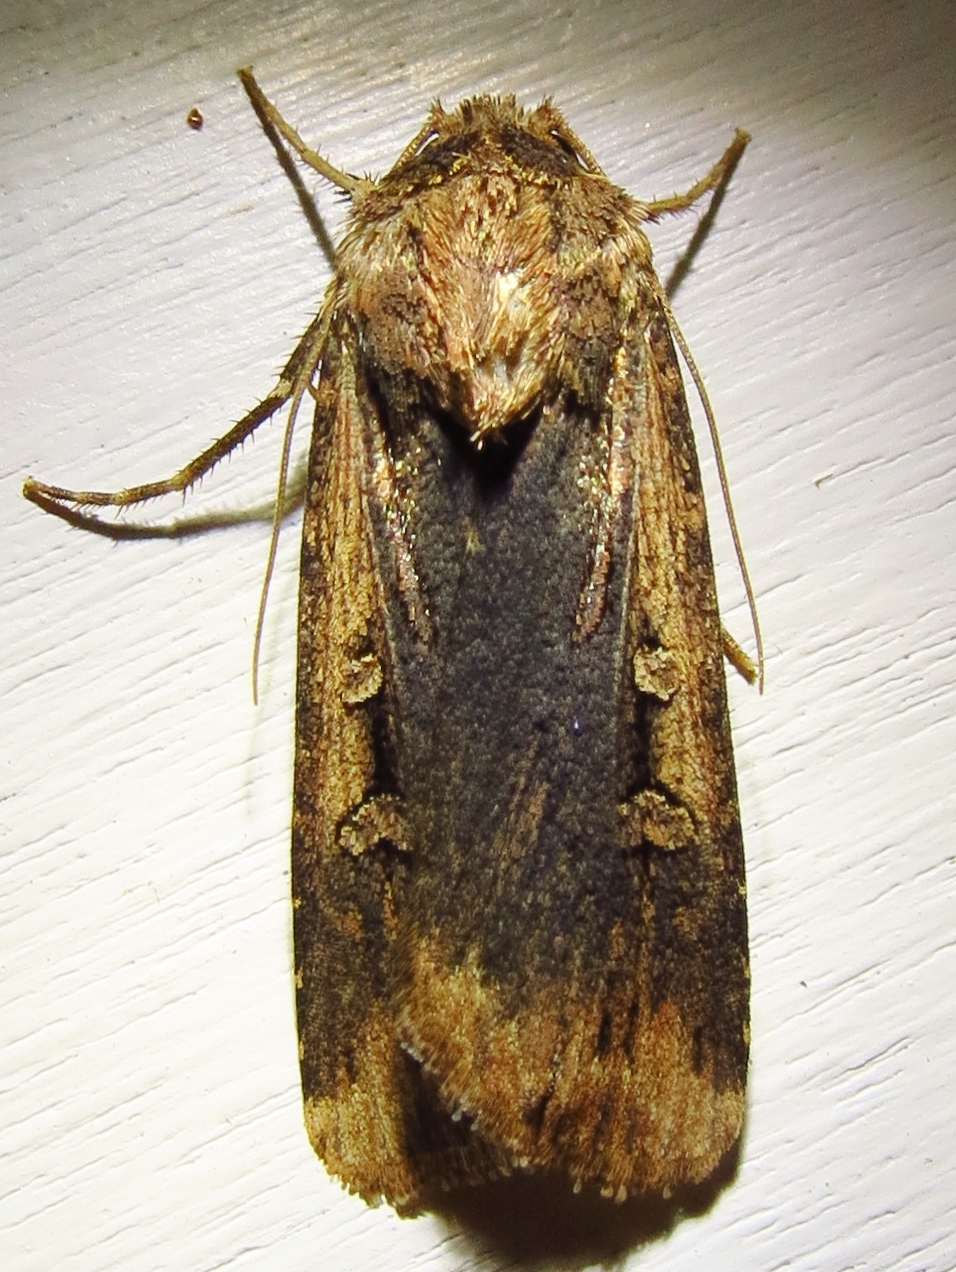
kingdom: Animalia
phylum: Arthropoda
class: Insecta
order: Lepidoptera
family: Noctuidae
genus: Feltia
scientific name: Feltia subterranea
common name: Granulate cutworm
